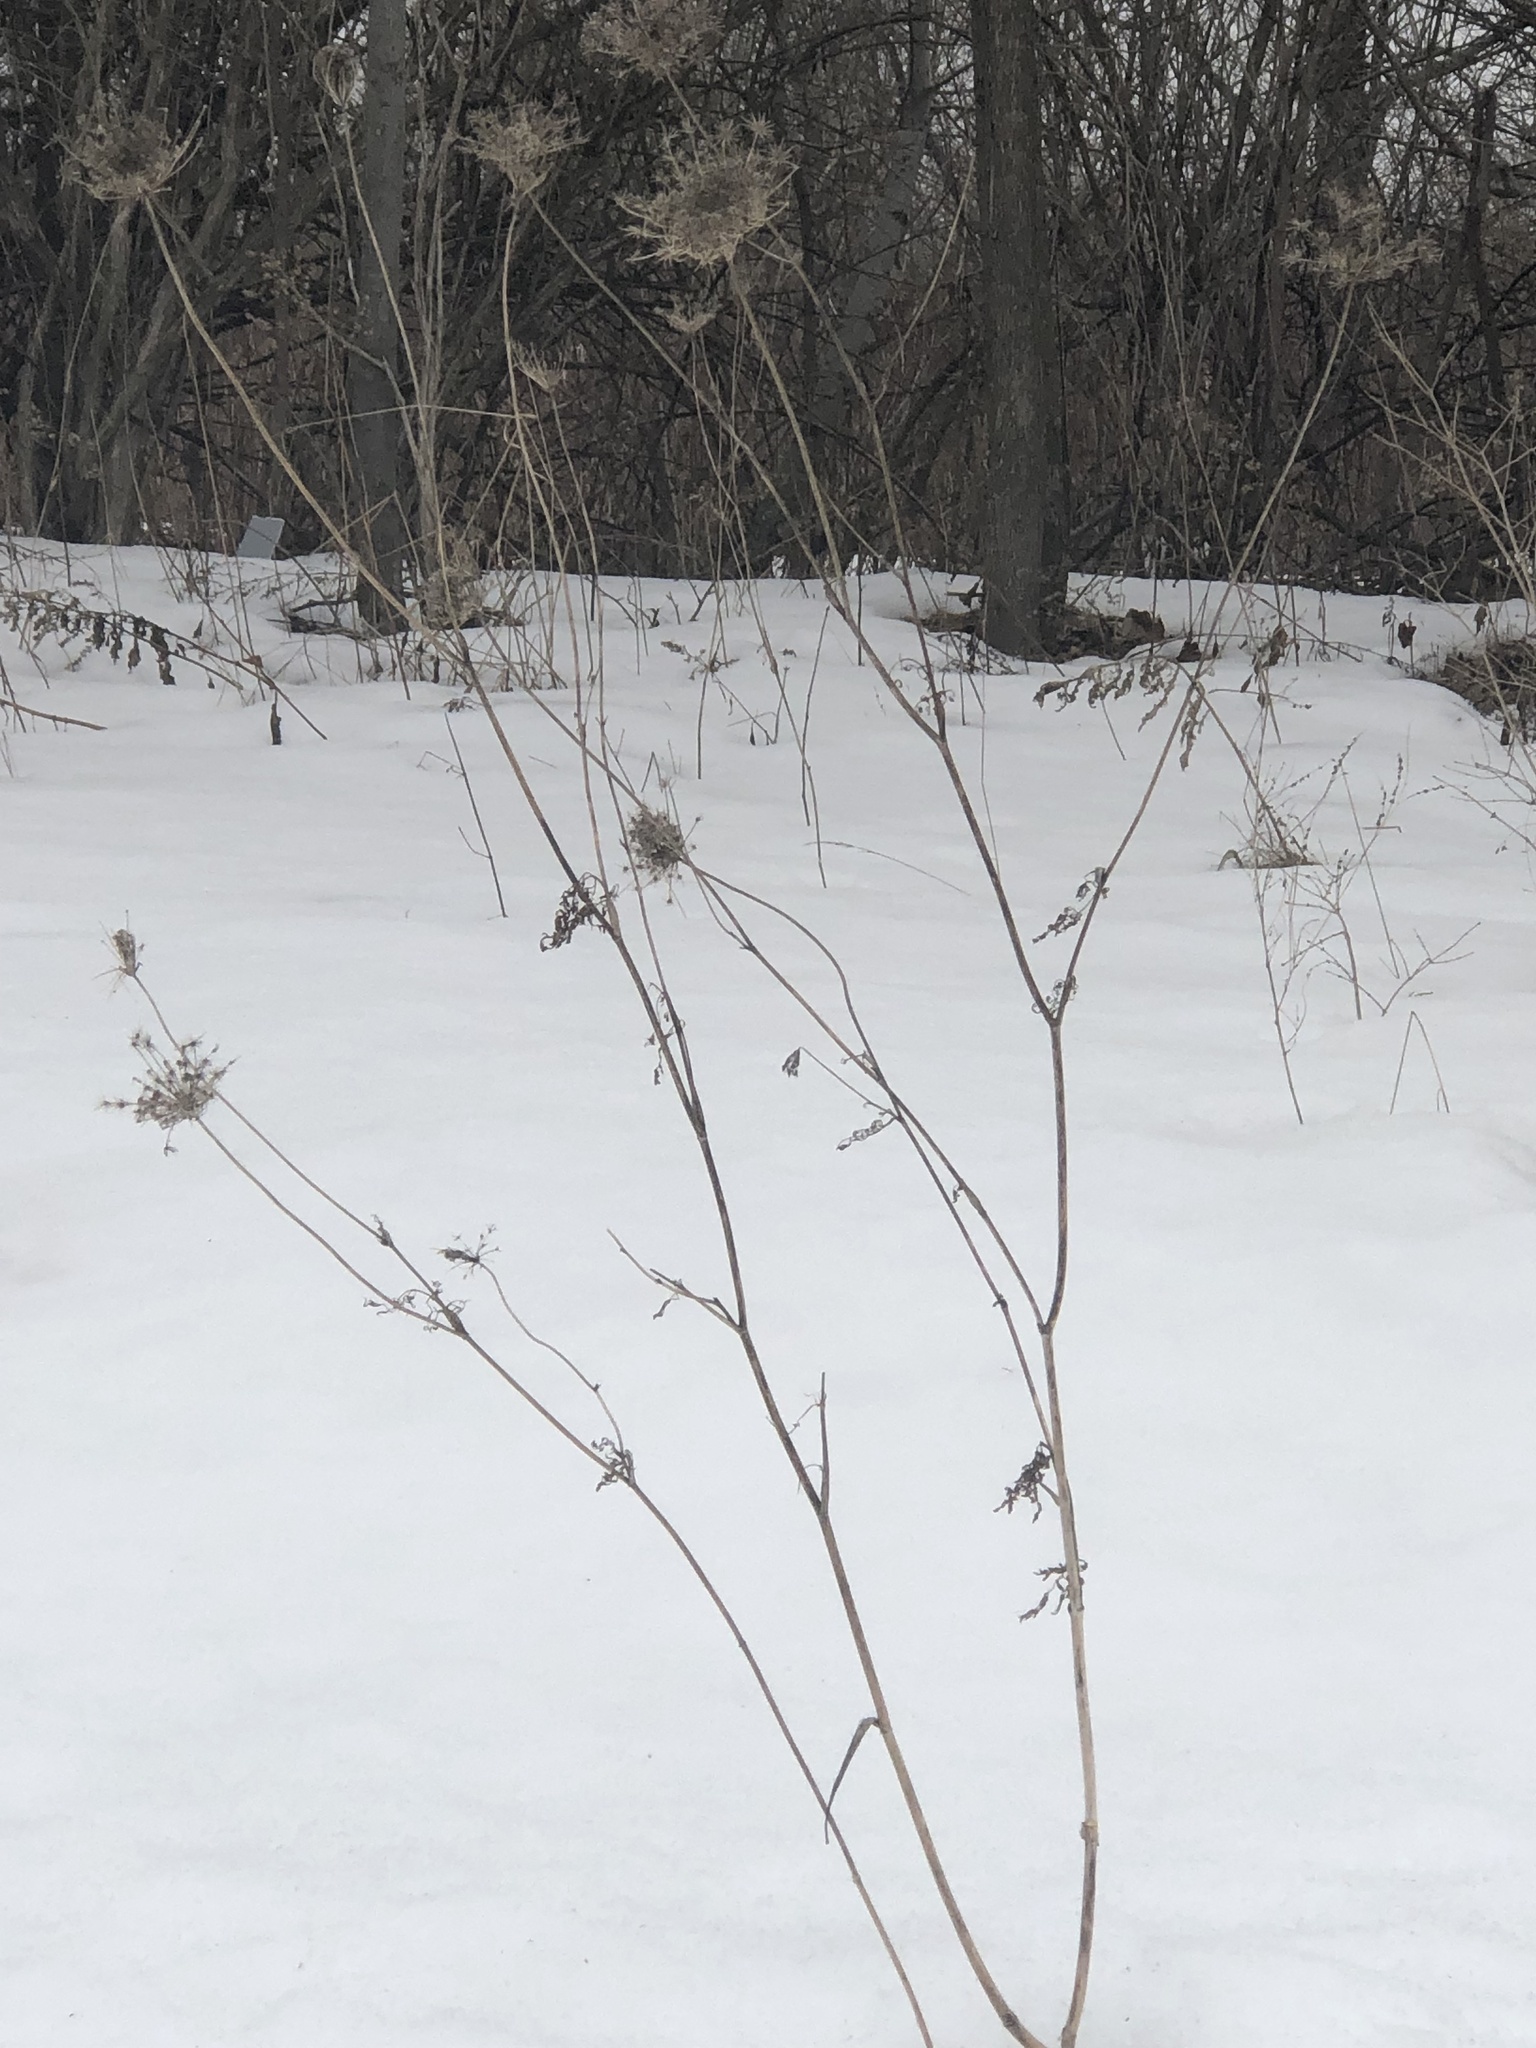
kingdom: Plantae
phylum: Tracheophyta
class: Magnoliopsida
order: Apiales
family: Apiaceae
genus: Daucus
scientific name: Daucus carota
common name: Wild carrot
